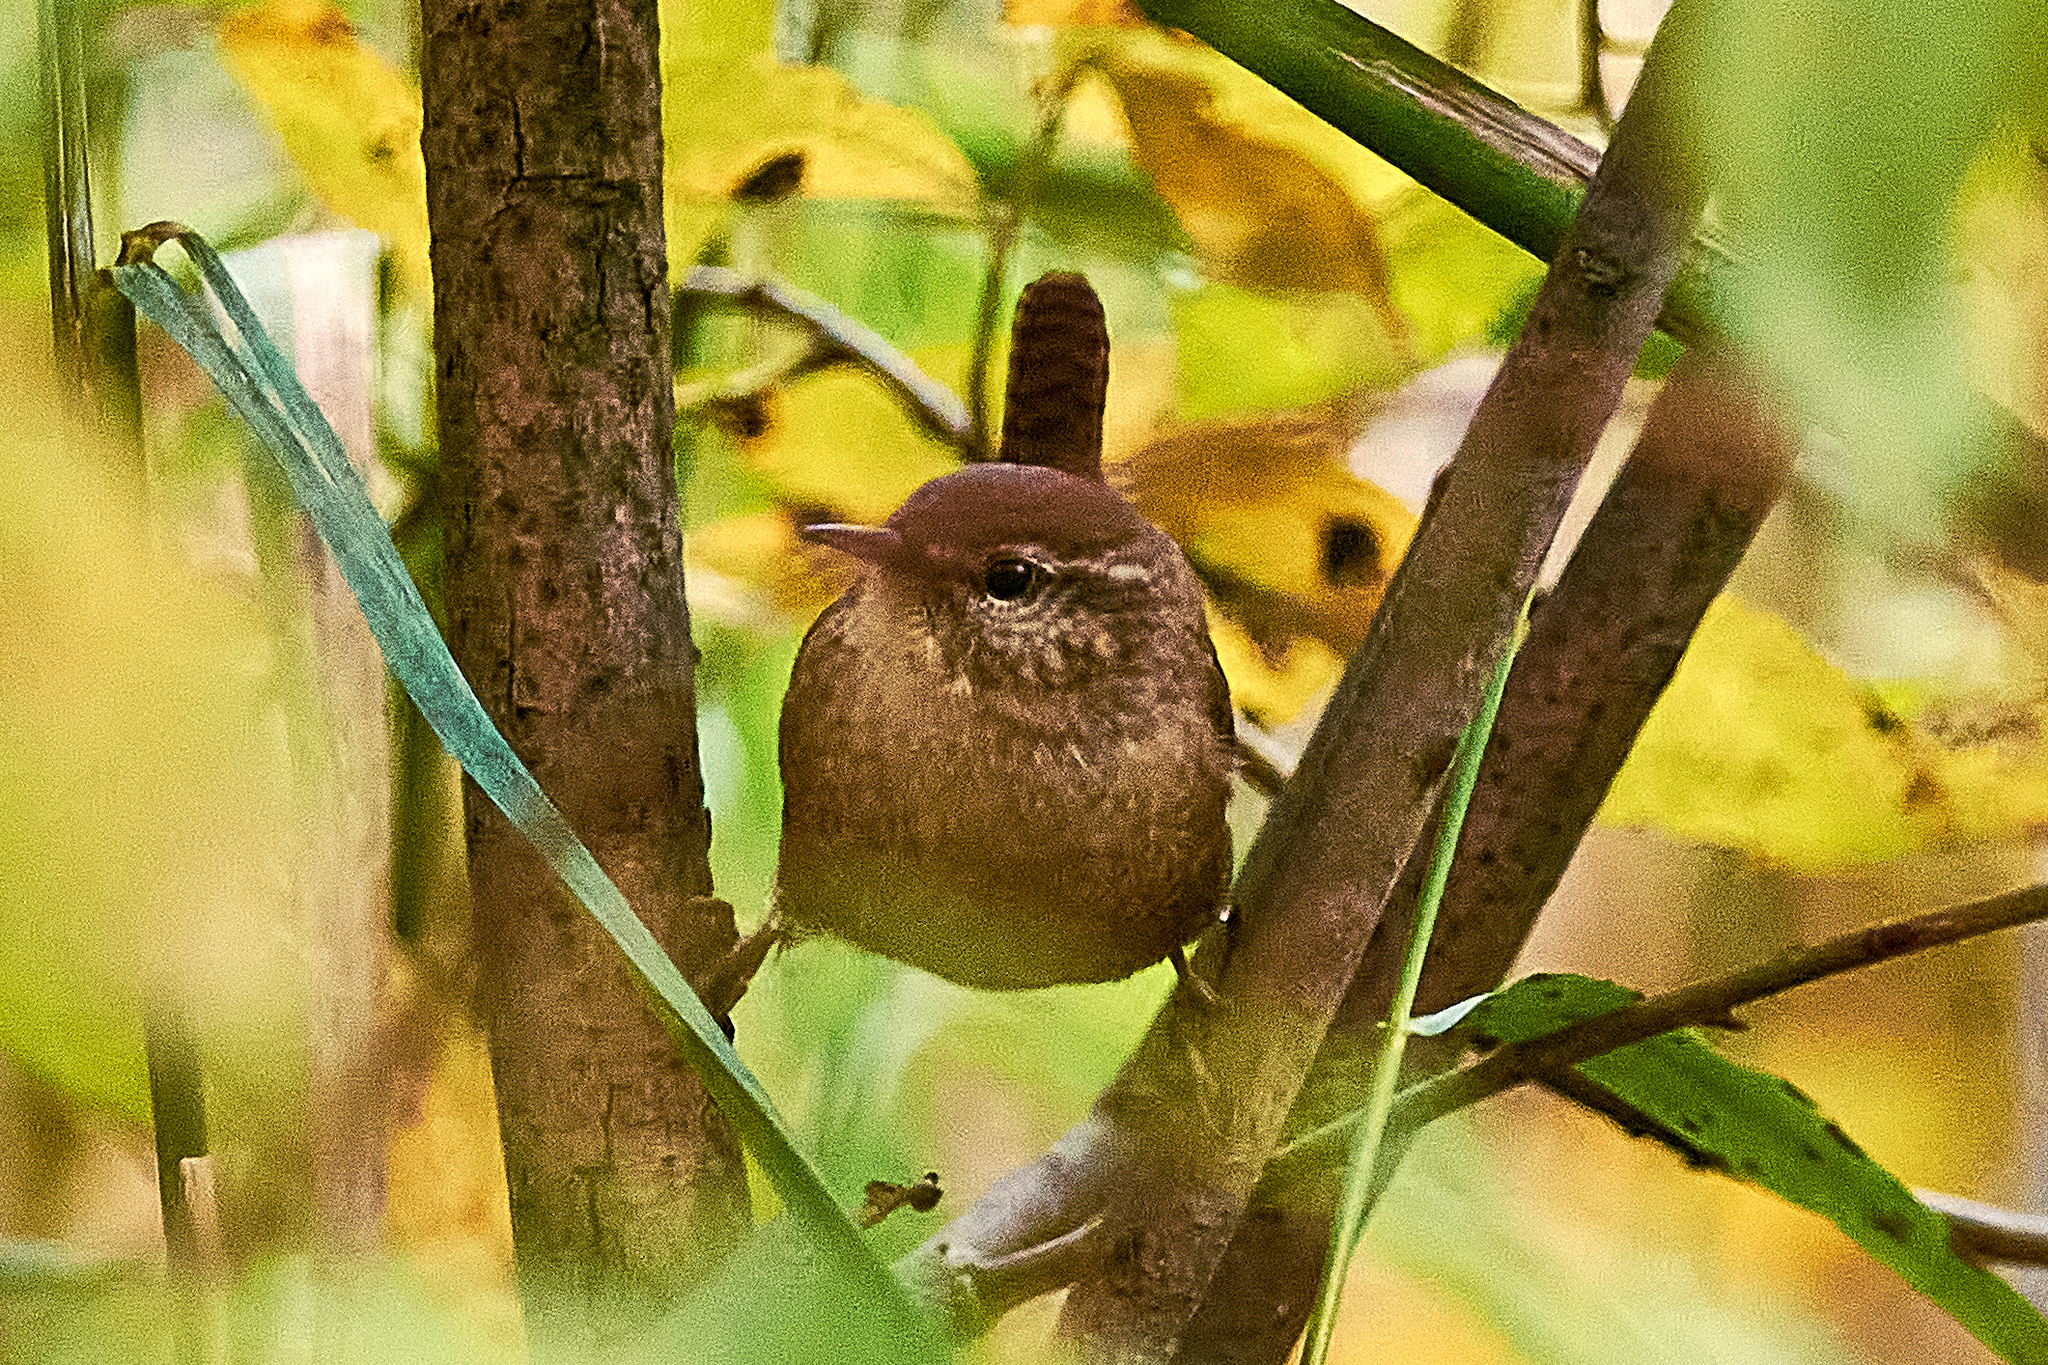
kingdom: Animalia
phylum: Chordata
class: Aves
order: Passeriformes
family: Troglodytidae
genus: Troglodytes
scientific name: Troglodytes troglodytes
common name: Eurasian wren
